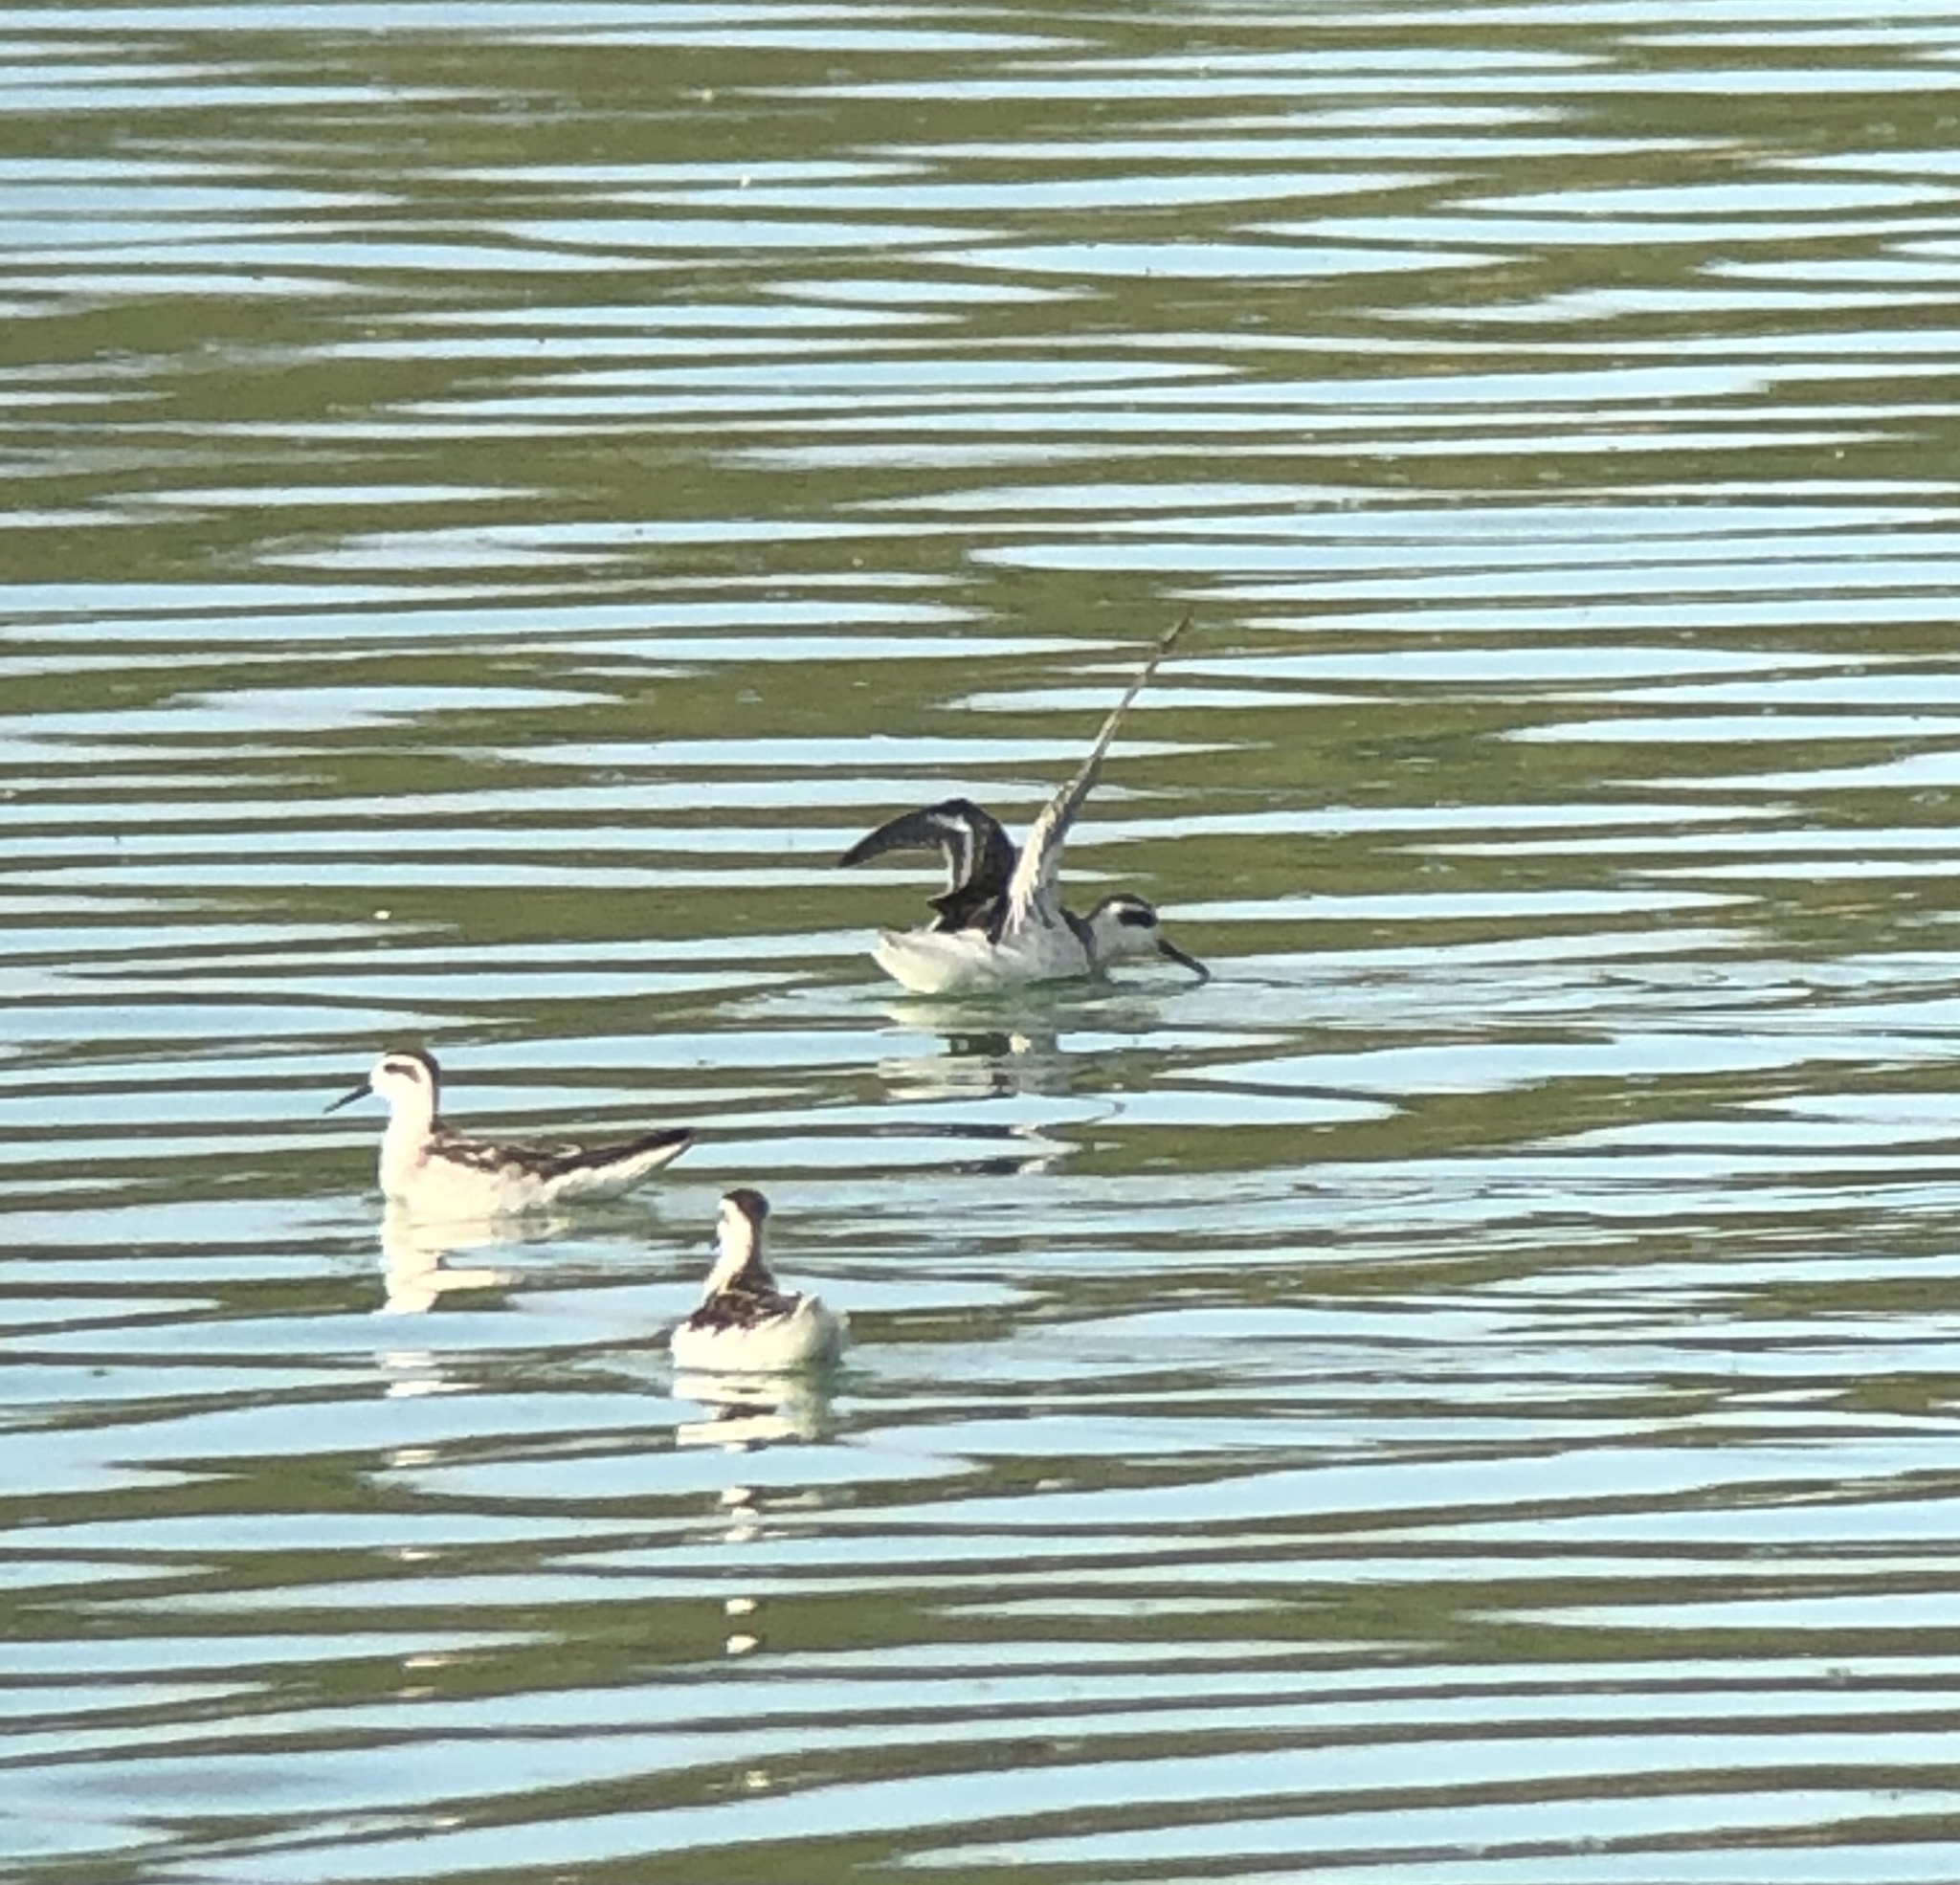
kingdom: Animalia
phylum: Chordata
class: Aves
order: Charadriiformes
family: Scolopacidae
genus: Phalaropus
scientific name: Phalaropus lobatus
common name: Red-necked phalarope
